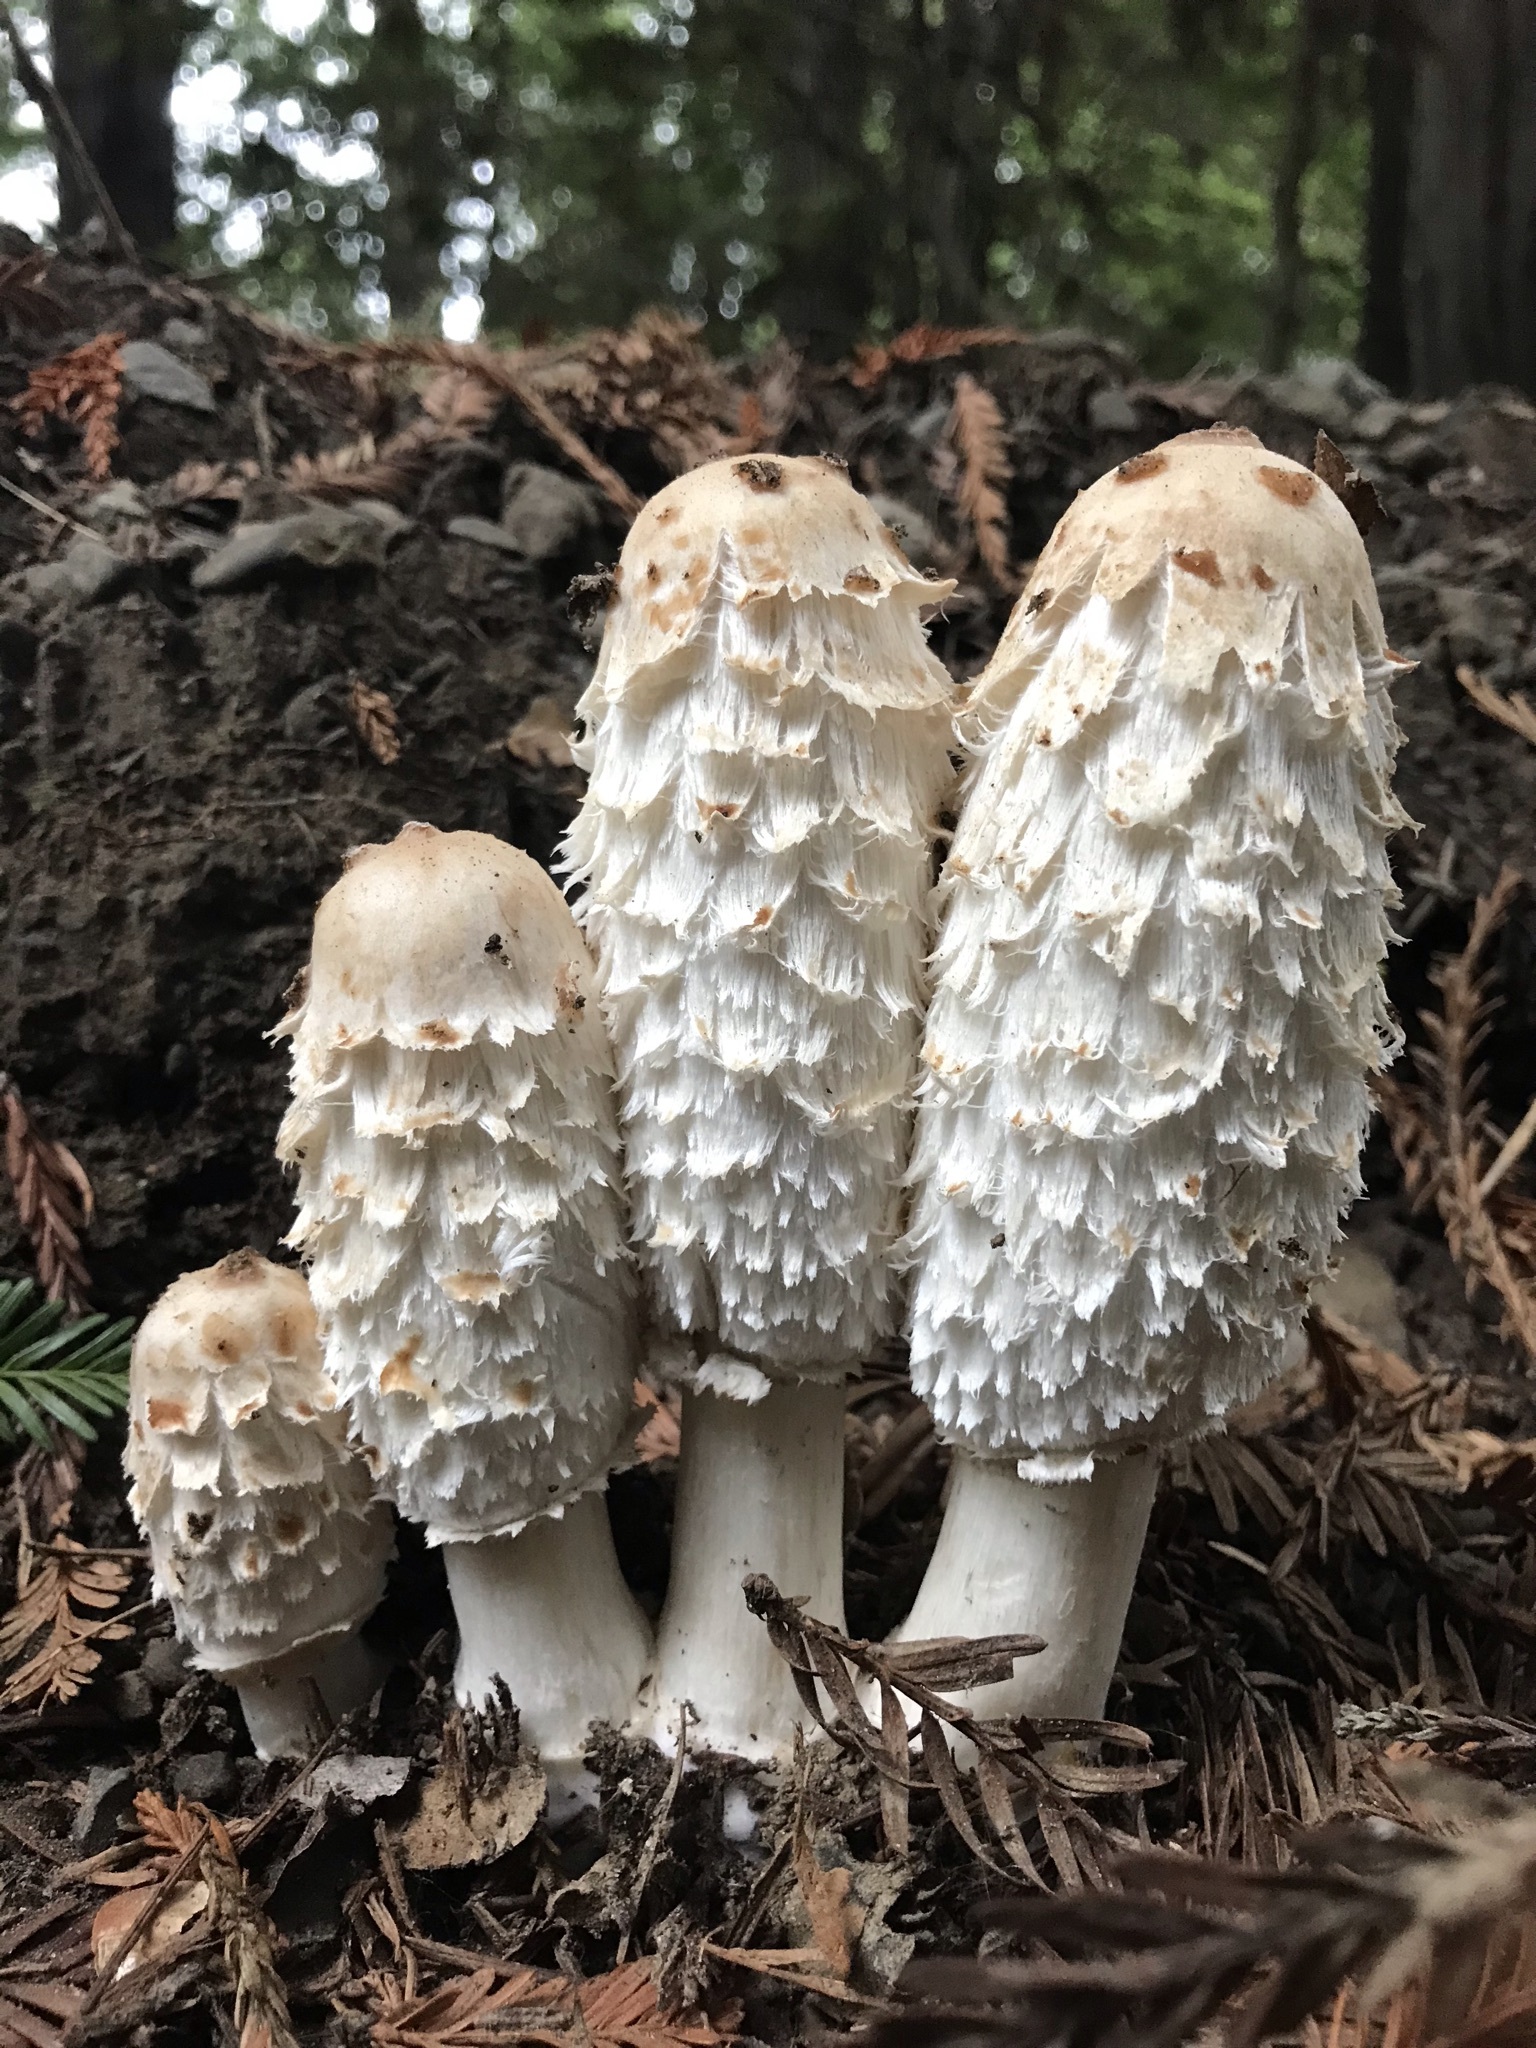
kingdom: Fungi
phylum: Basidiomycota
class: Agaricomycetes
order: Agaricales
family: Agaricaceae
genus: Coprinus
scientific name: Coprinus comatus
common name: Lawyer's wig
